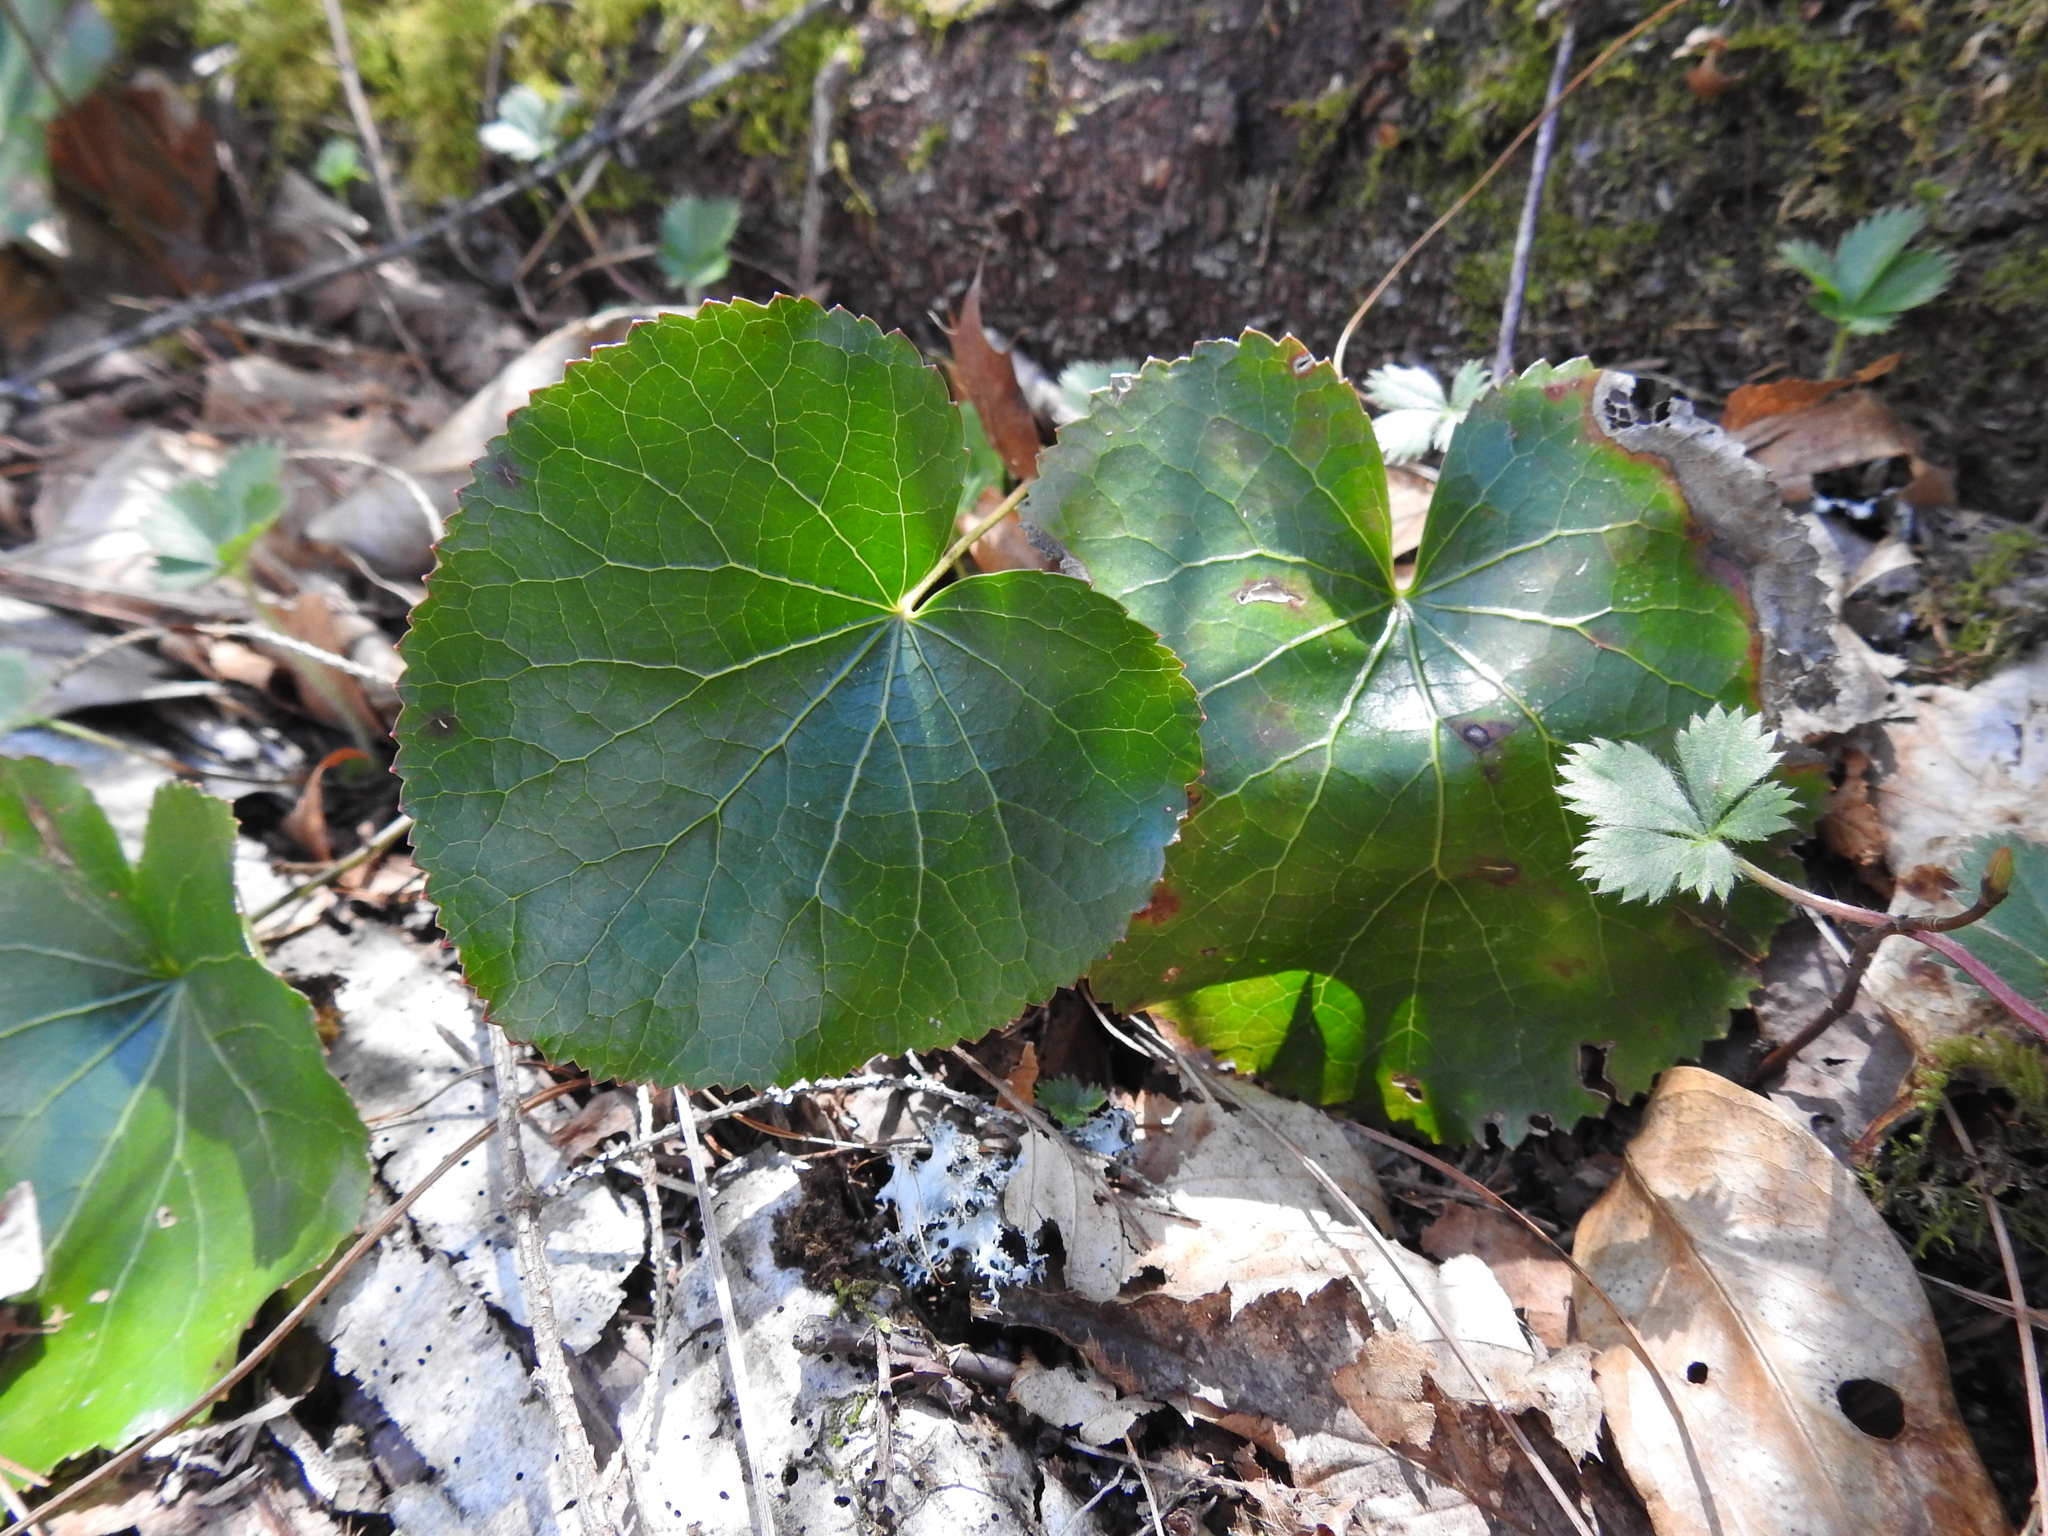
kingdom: Plantae
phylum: Tracheophyta
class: Magnoliopsida
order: Ericales
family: Diapensiaceae
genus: Galax
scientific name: Galax urceolata
